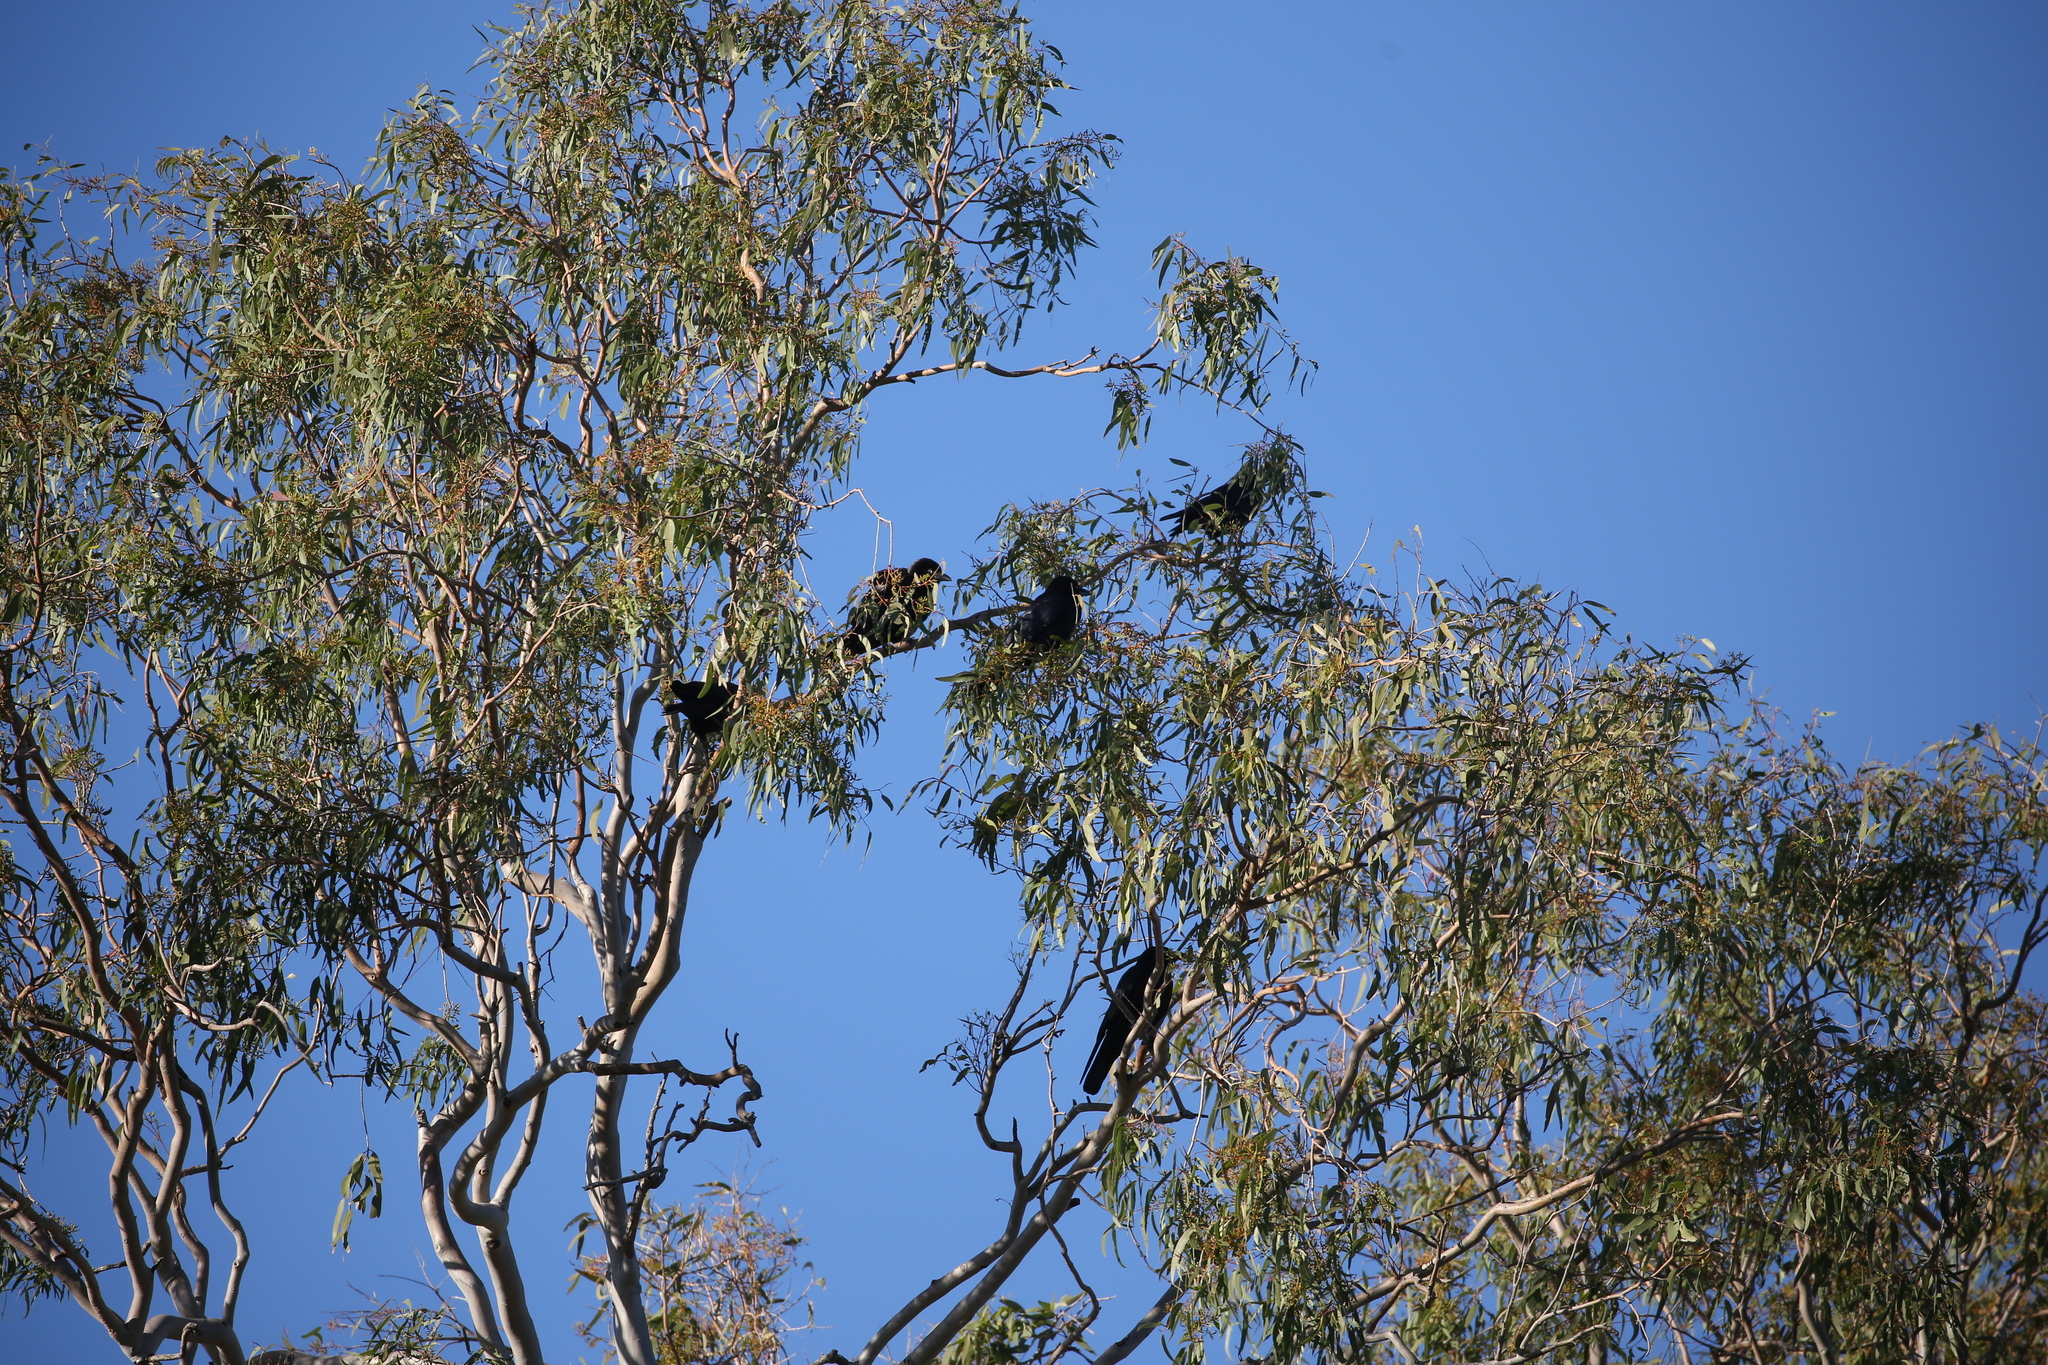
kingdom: Animalia
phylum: Chordata
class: Aves
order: Passeriformes
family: Corvidae
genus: Corvus
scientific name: Corvus orru
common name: Torresian crow
